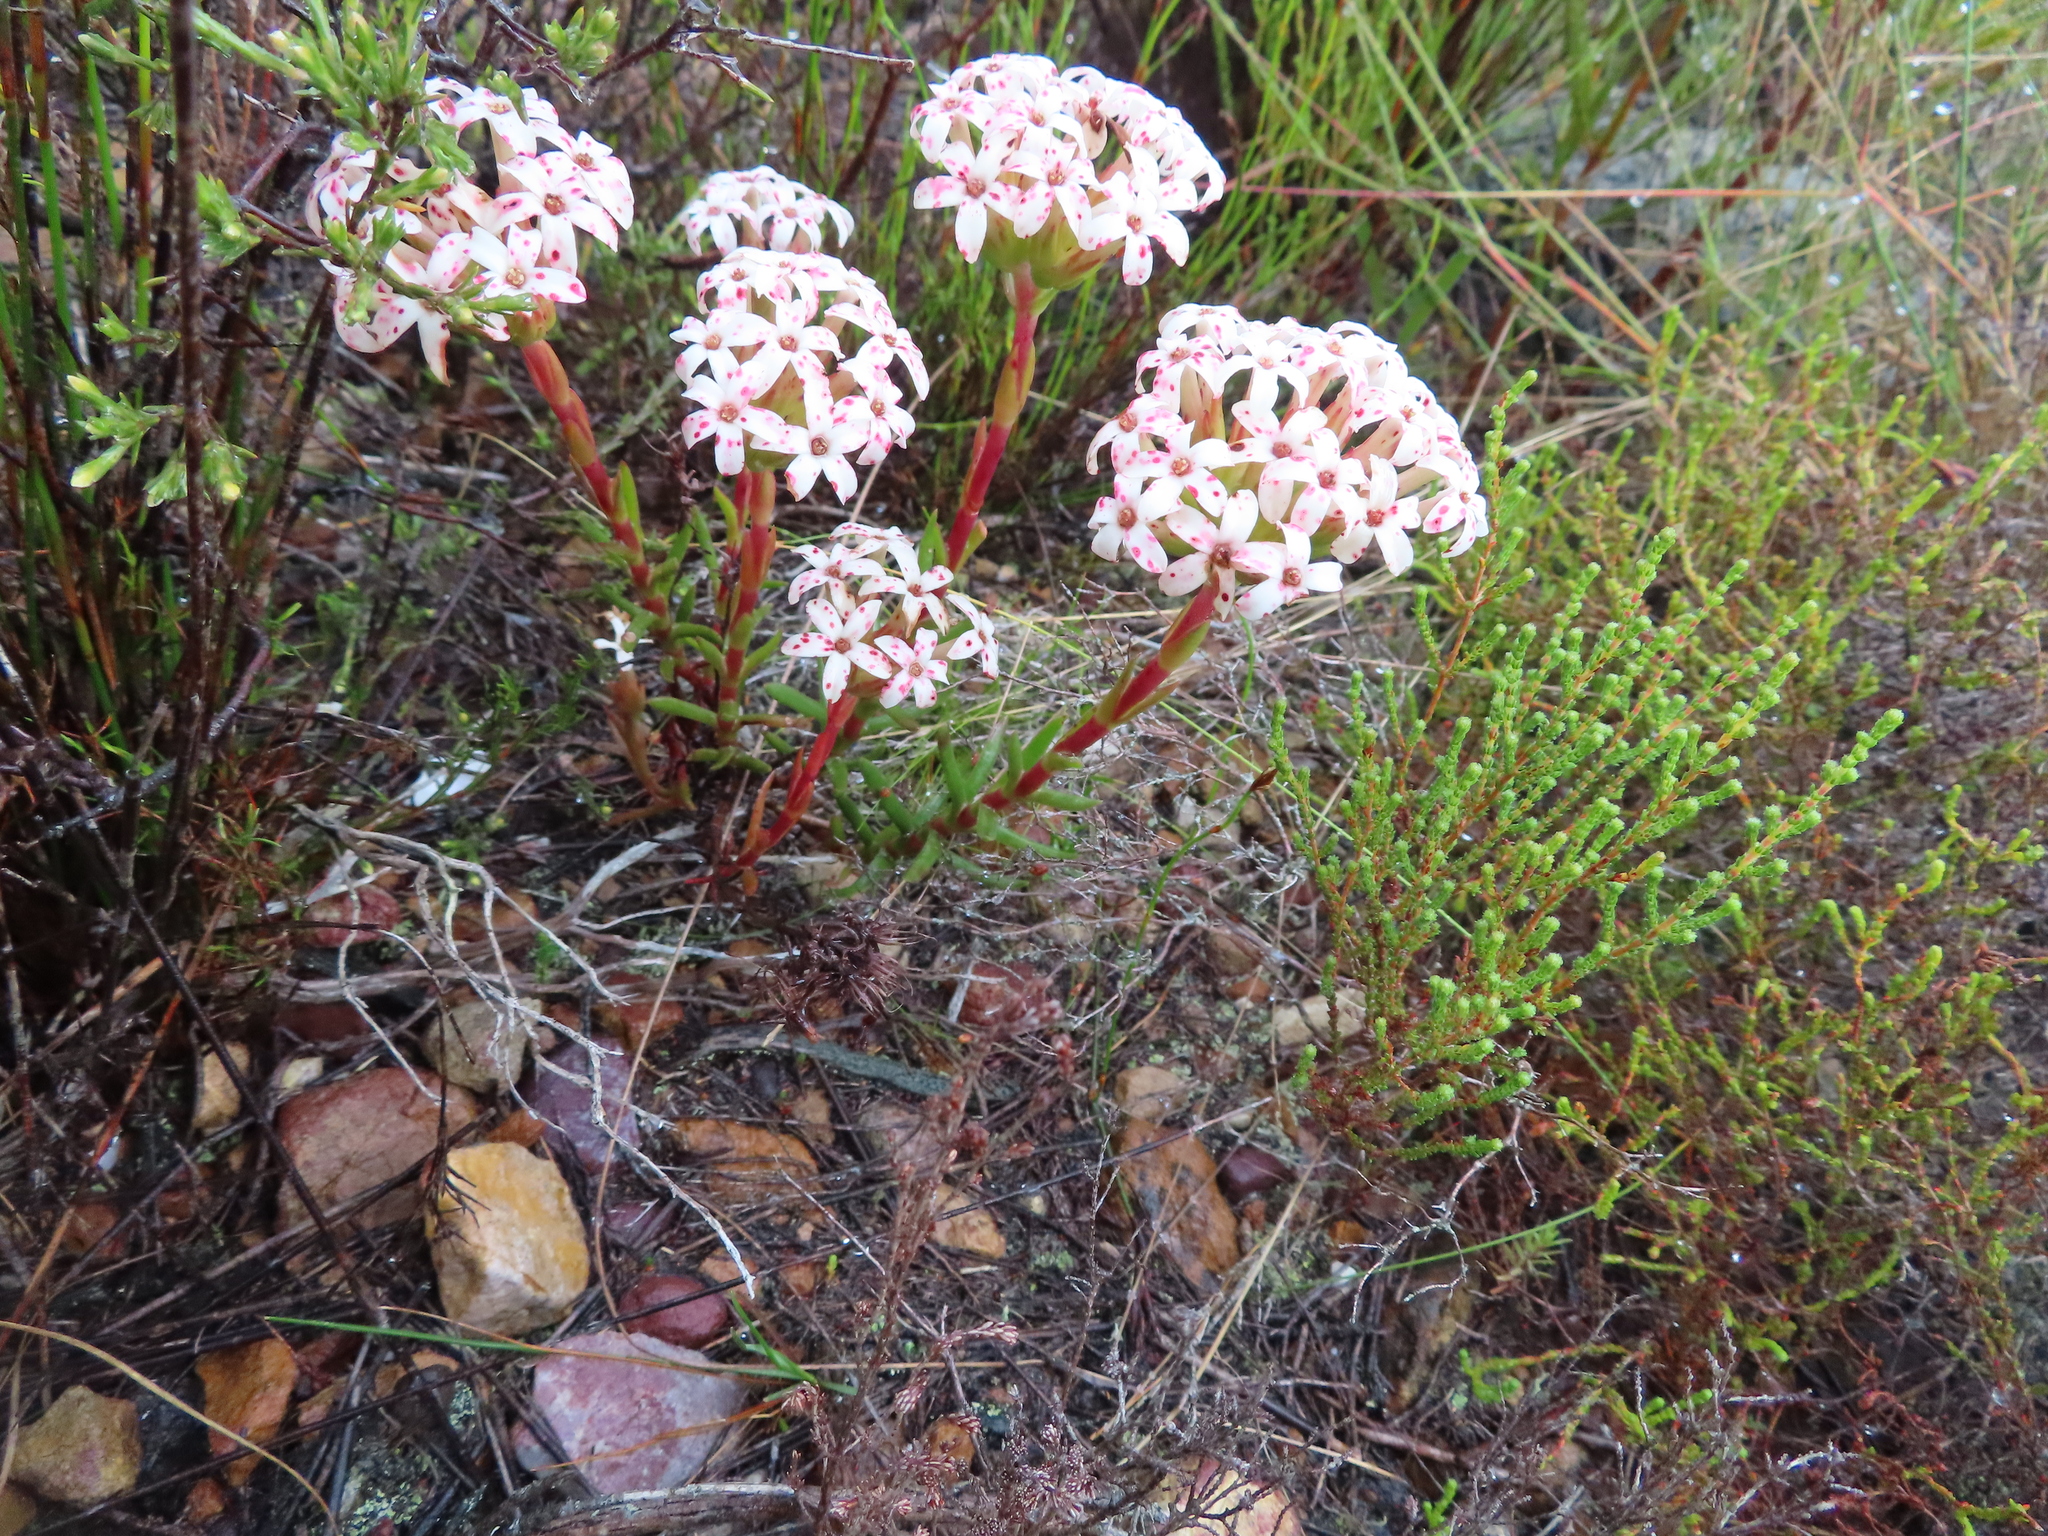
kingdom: Plantae
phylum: Tracheophyta
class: Magnoliopsida
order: Saxifragales
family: Crassulaceae
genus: Crassula
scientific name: Crassula fascicularis
